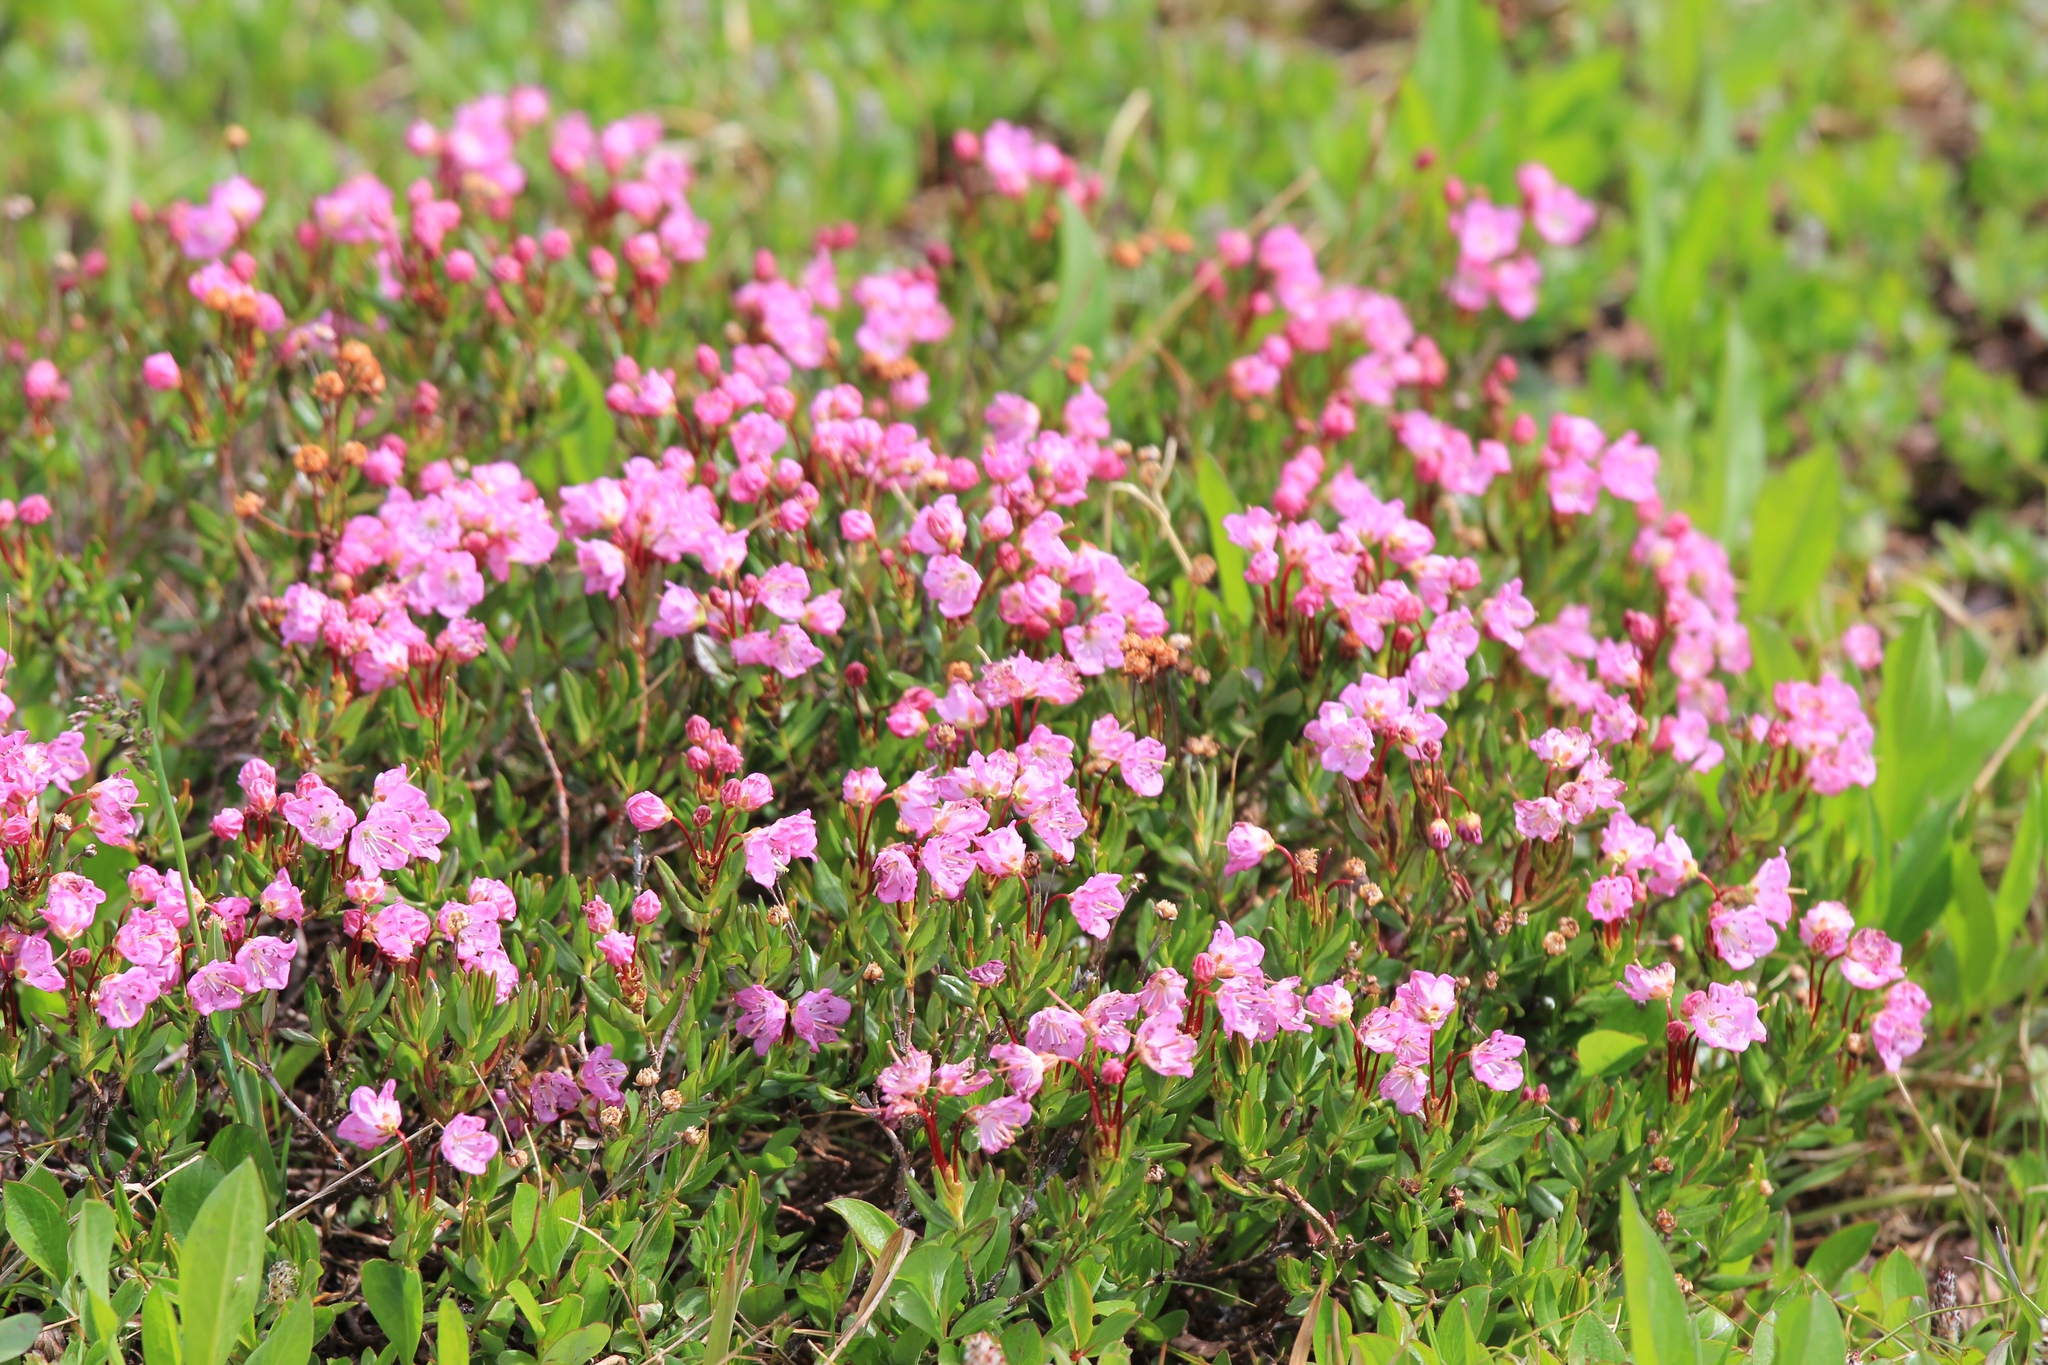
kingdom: Plantae
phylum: Tracheophyta
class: Magnoliopsida
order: Ericales
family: Ericaceae
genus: Kalmia
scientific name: Kalmia microphylla
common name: Alpine bog laurel
